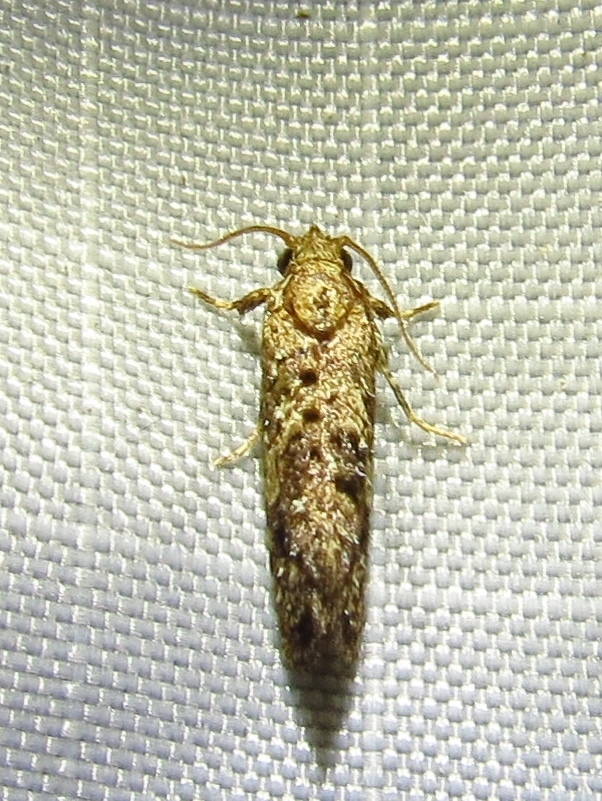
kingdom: Animalia
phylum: Arthropoda
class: Insecta
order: Lepidoptera
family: Tineidae
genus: Acrolophus
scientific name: Acrolophus cressoni
